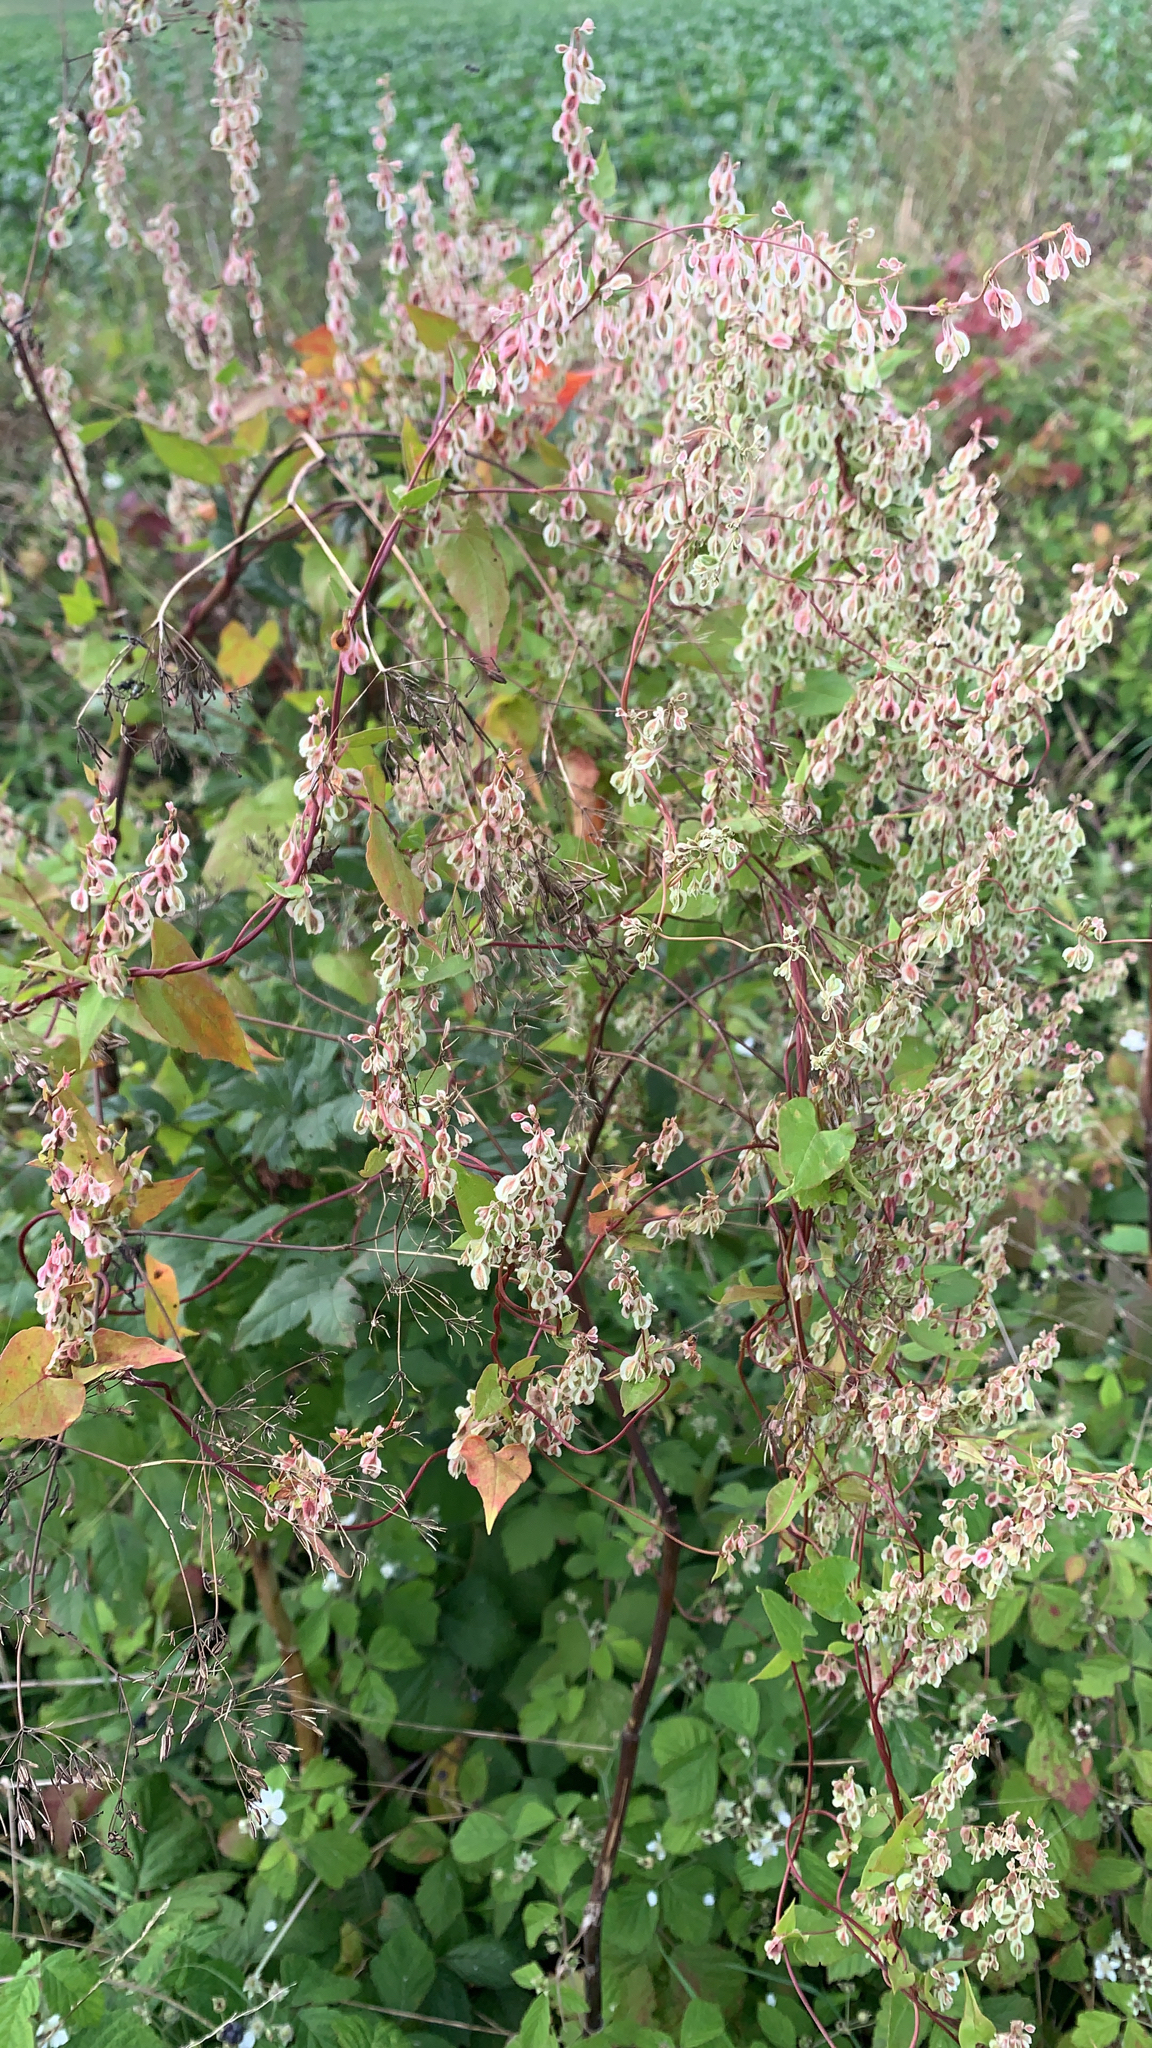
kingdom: Plantae
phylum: Tracheophyta
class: Magnoliopsida
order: Caryophyllales
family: Polygonaceae
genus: Fallopia
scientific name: Fallopia dumetorum
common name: Copse-bindweed
